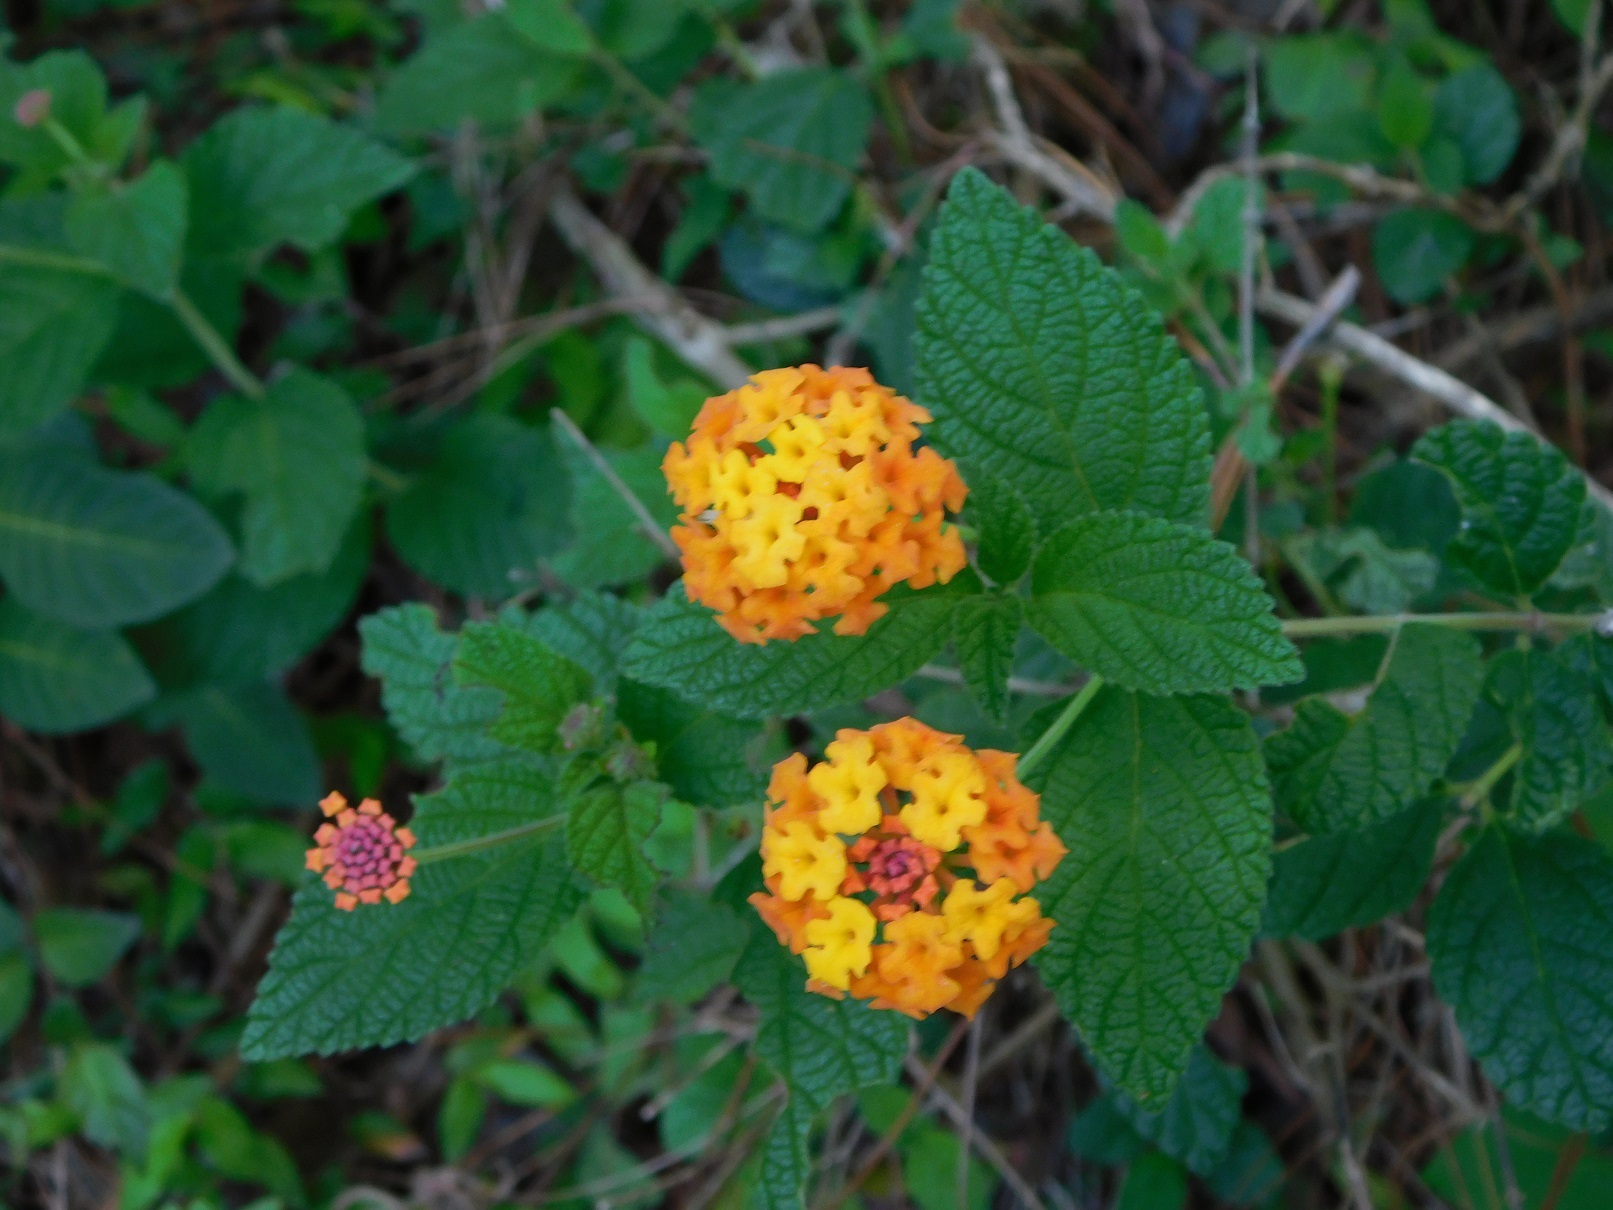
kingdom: Plantae
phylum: Tracheophyta
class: Magnoliopsida
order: Lamiales
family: Verbenaceae
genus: Lantana
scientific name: Lantana camara
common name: Lantana
